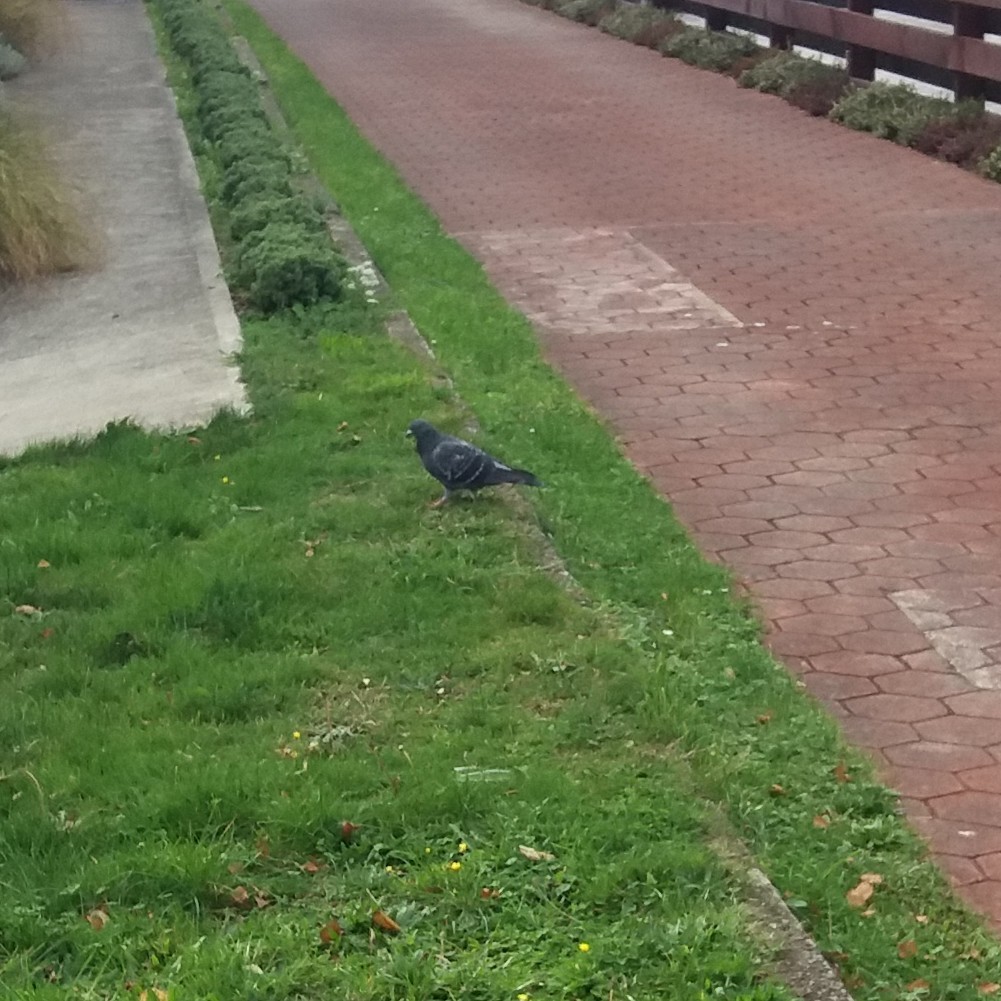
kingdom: Animalia
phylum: Chordata
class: Aves
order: Columbiformes
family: Columbidae
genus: Columba
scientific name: Columba livia
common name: Rock pigeon
